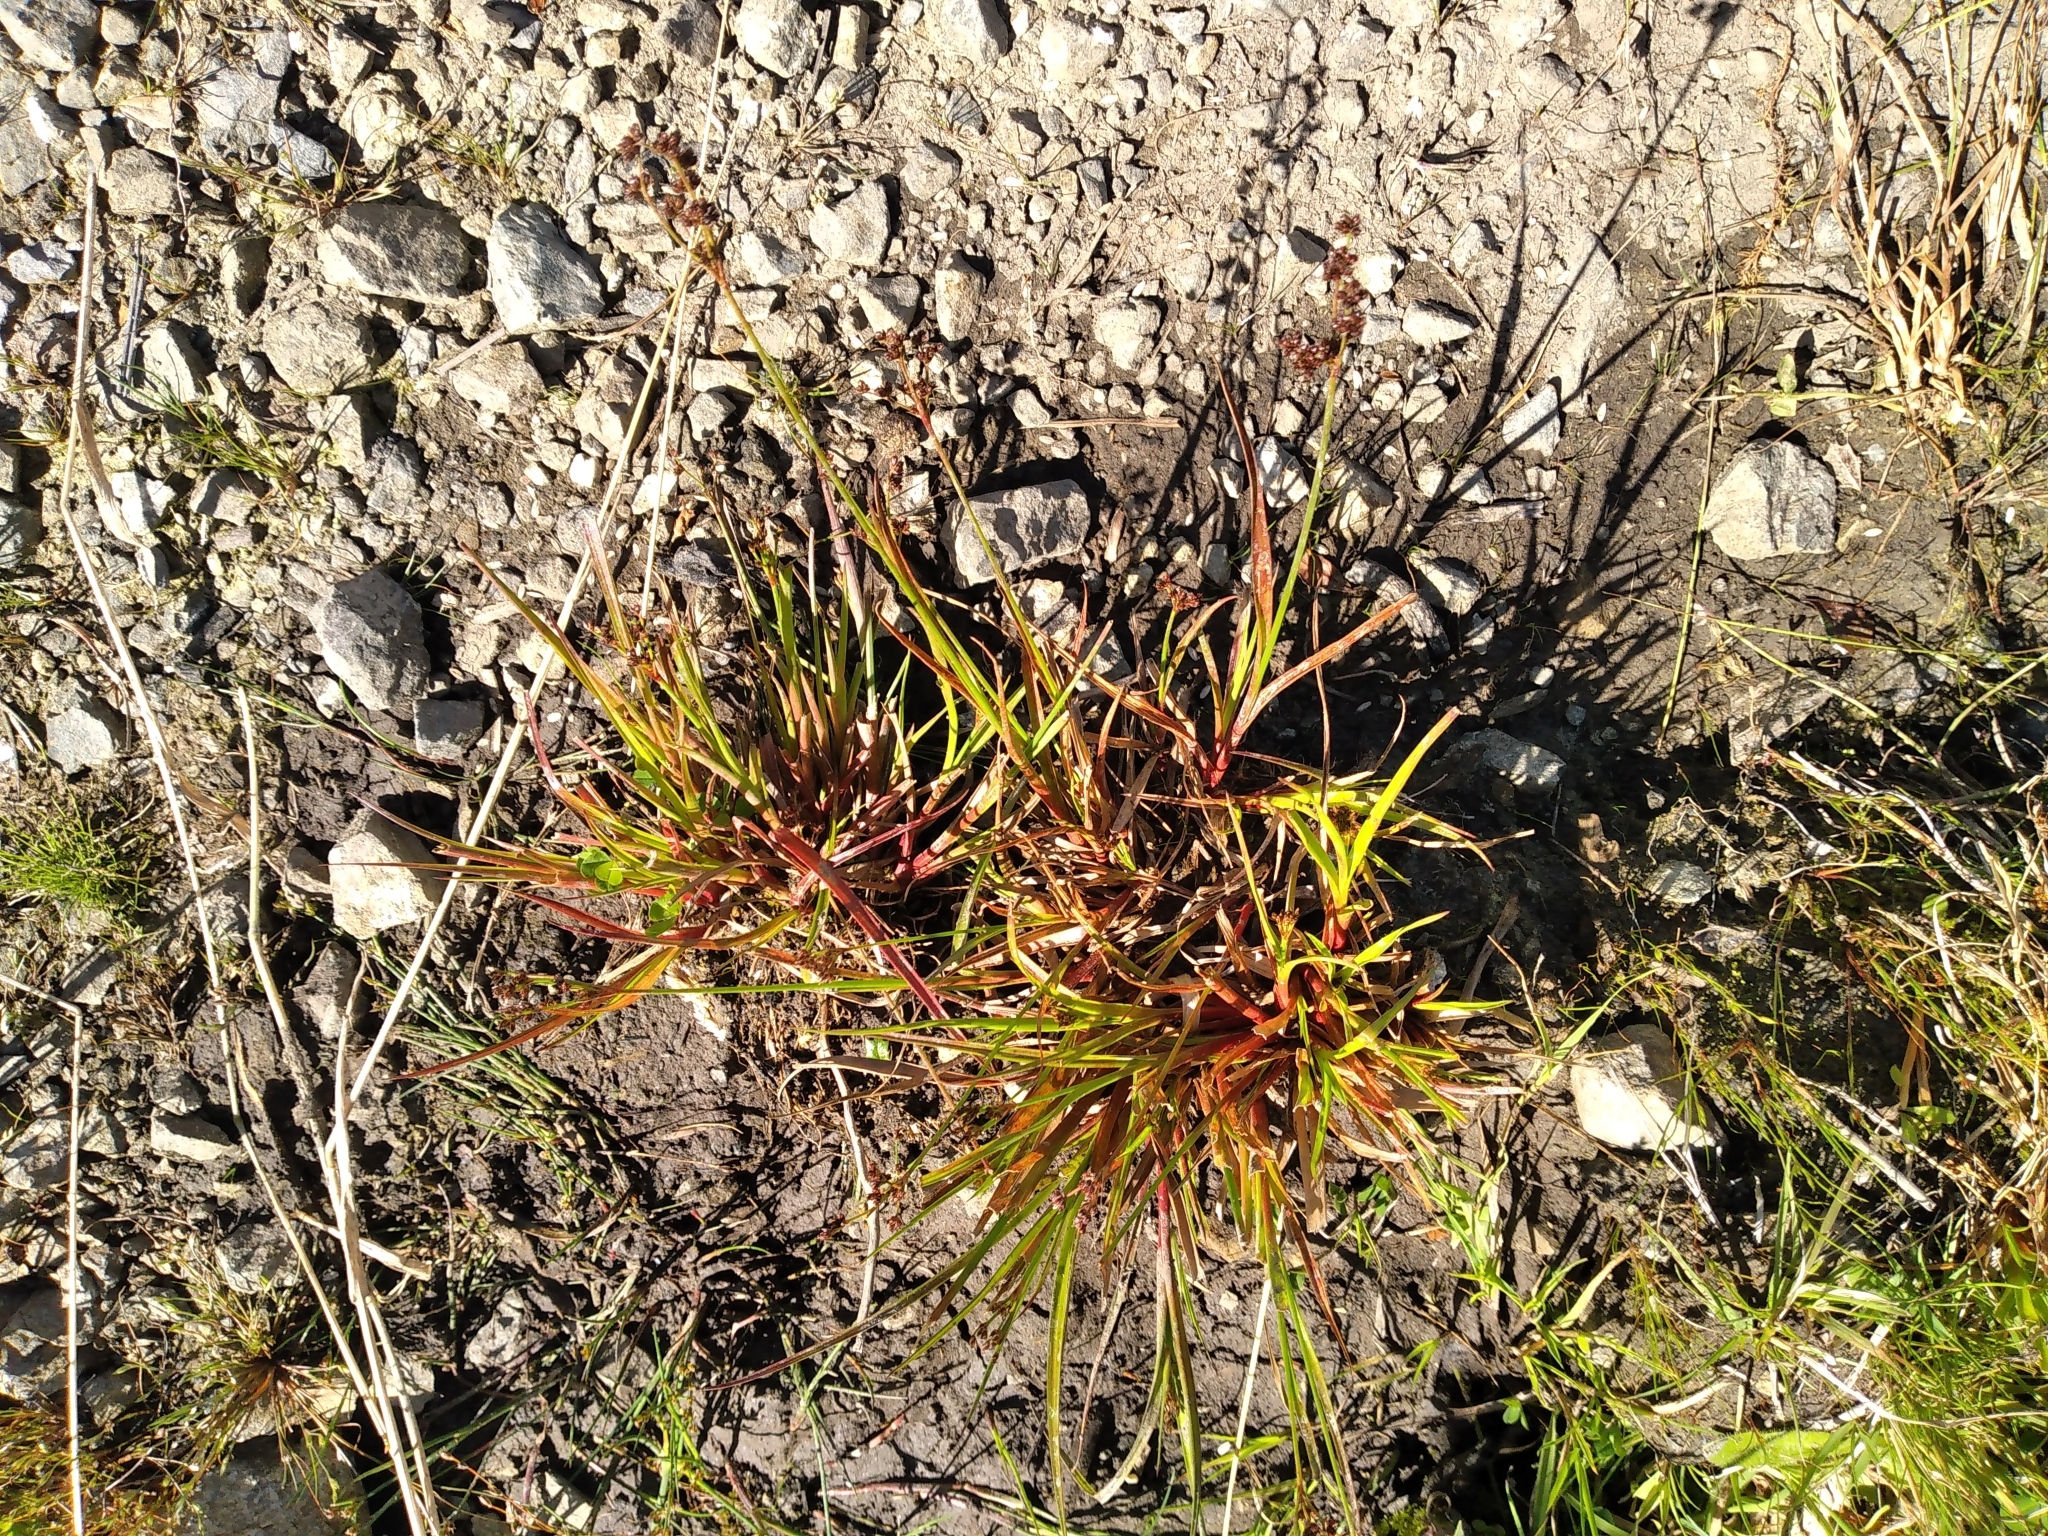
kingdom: Plantae
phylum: Tracheophyta
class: Liliopsida
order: Poales
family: Juncaceae
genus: Juncus
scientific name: Juncus planifolius
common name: Broadleaf rush
